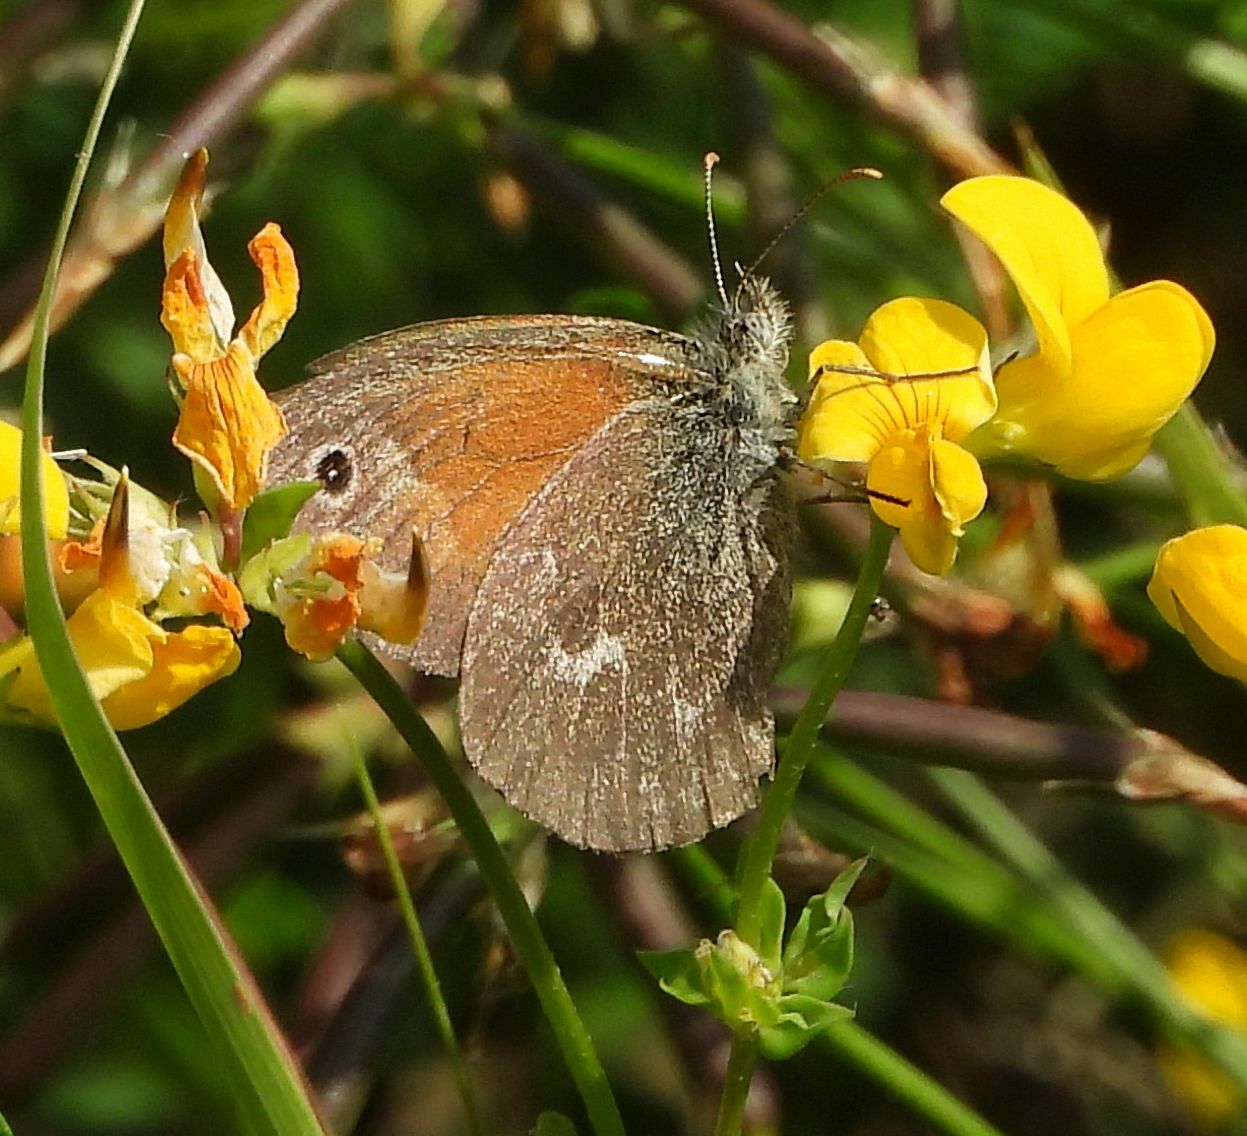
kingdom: Animalia
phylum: Arthropoda
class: Insecta
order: Lepidoptera
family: Nymphalidae
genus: Coenonympha
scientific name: Coenonympha california
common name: Common ringlet
